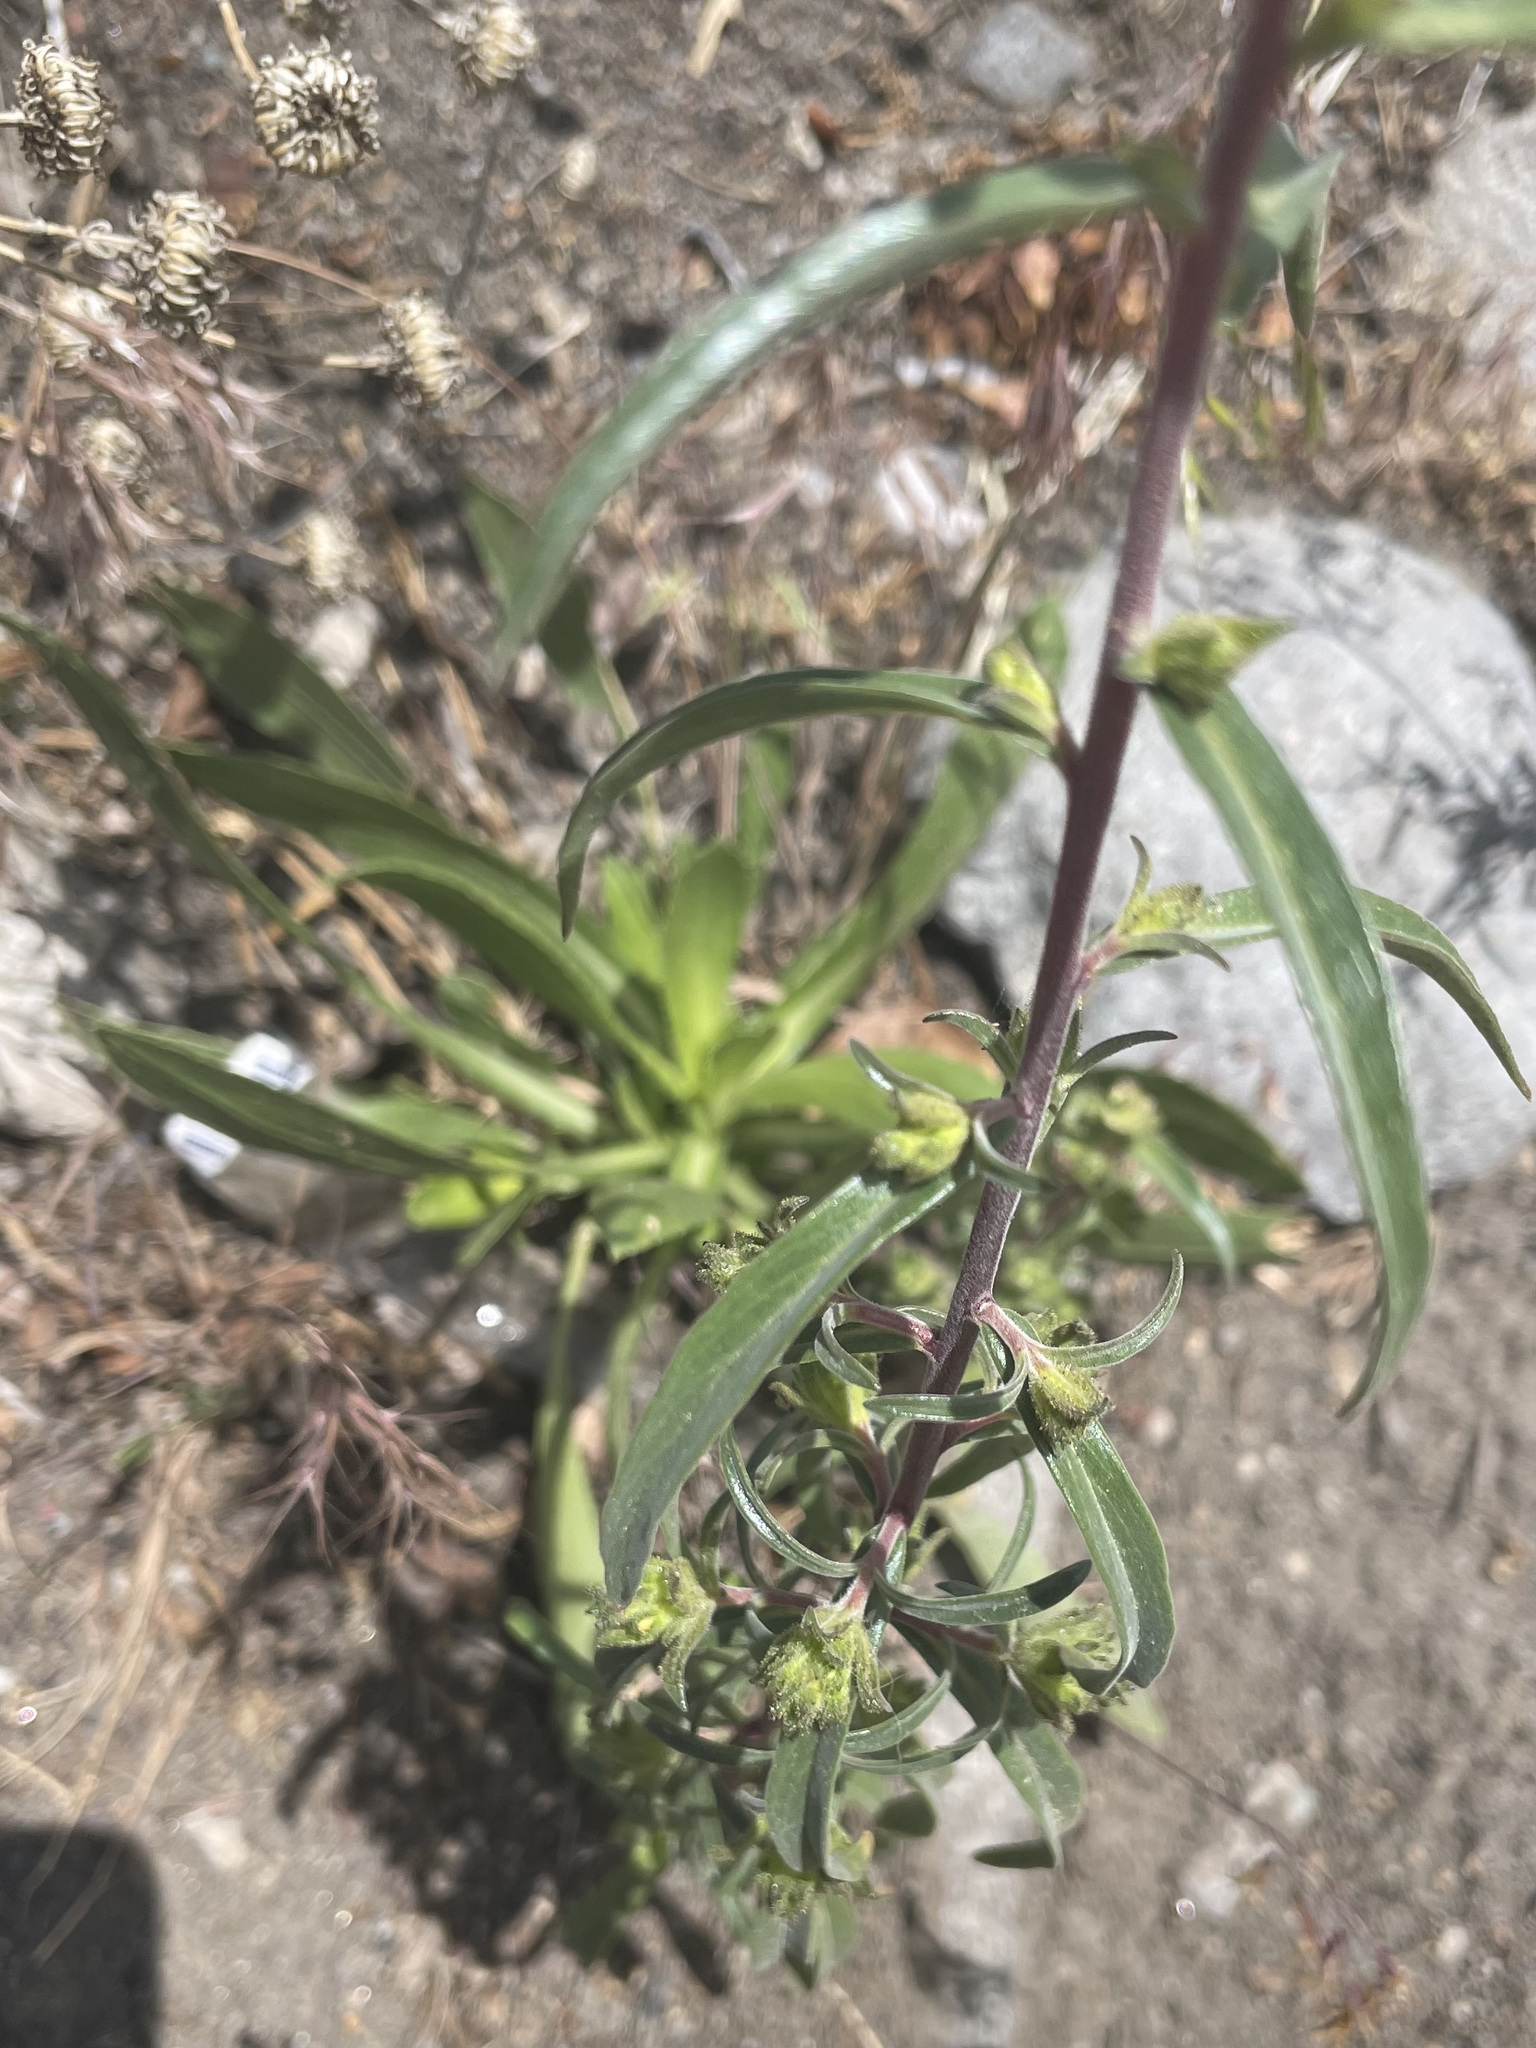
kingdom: Plantae
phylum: Tracheophyta
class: Magnoliopsida
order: Ericales
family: Polemoniaceae
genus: Collomia
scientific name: Collomia grandiflora
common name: California strawflower
